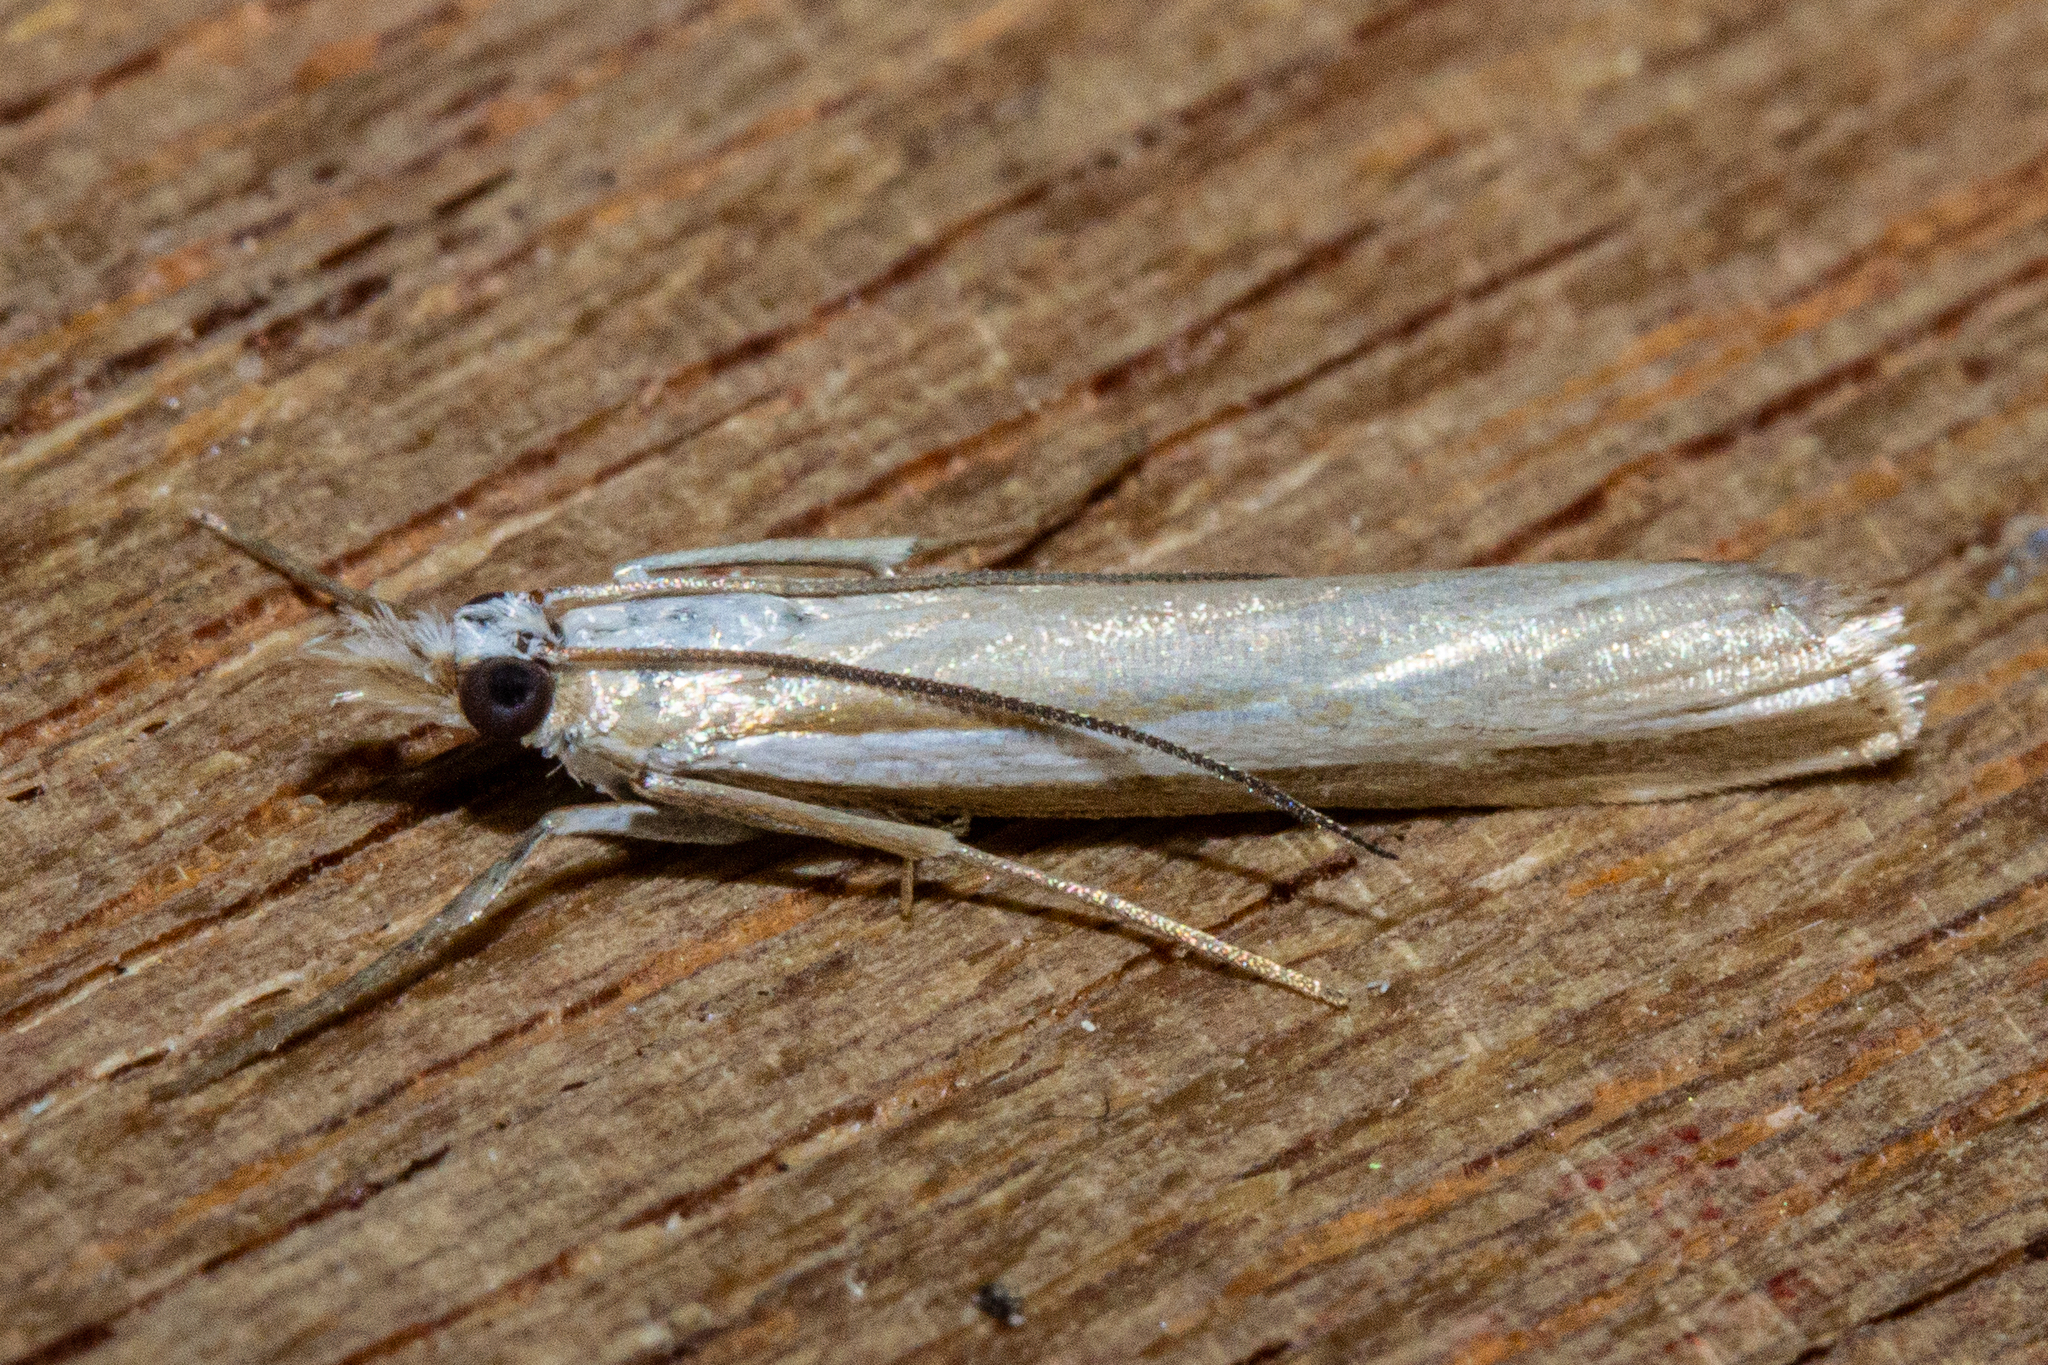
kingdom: Animalia
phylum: Arthropoda
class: Insecta
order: Lepidoptera
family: Crambidae
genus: Orocrambus
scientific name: Orocrambus vittellus
